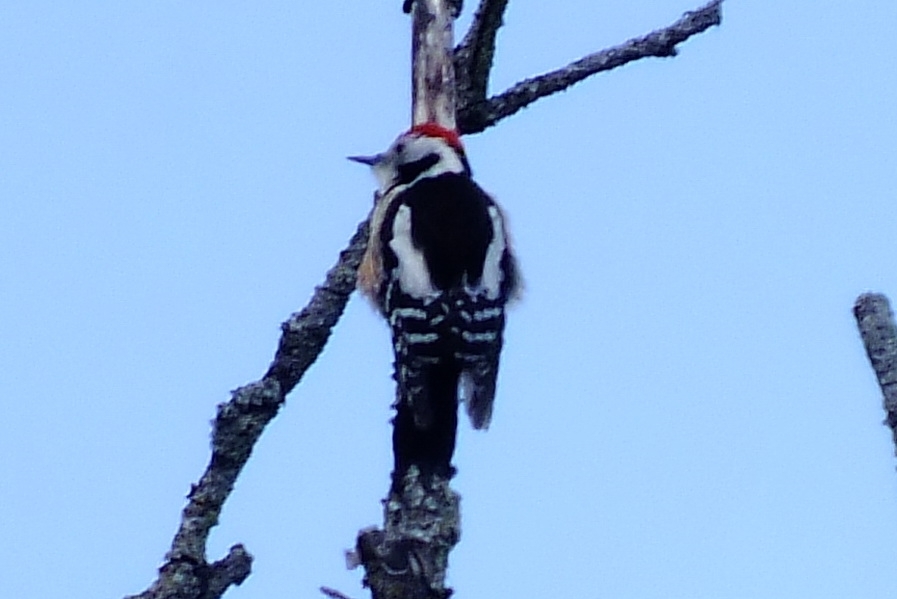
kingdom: Animalia
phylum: Chordata
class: Aves
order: Piciformes
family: Picidae
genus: Dendrocoptes
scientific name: Dendrocoptes medius
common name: Middle spotted woodpecker
